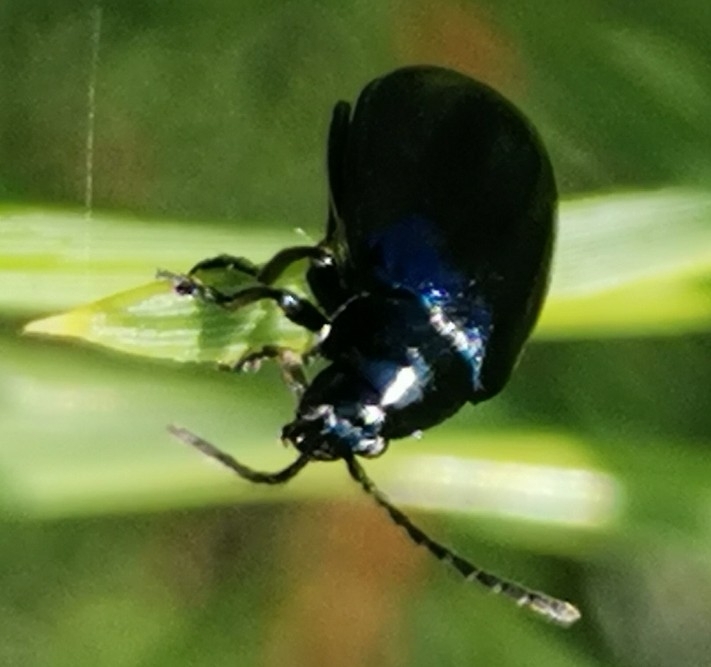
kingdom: Animalia
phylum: Arthropoda
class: Insecta
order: Coleoptera
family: Chrysomelidae
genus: Agelastica
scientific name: Agelastica alni
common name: Alder leaf beetle
